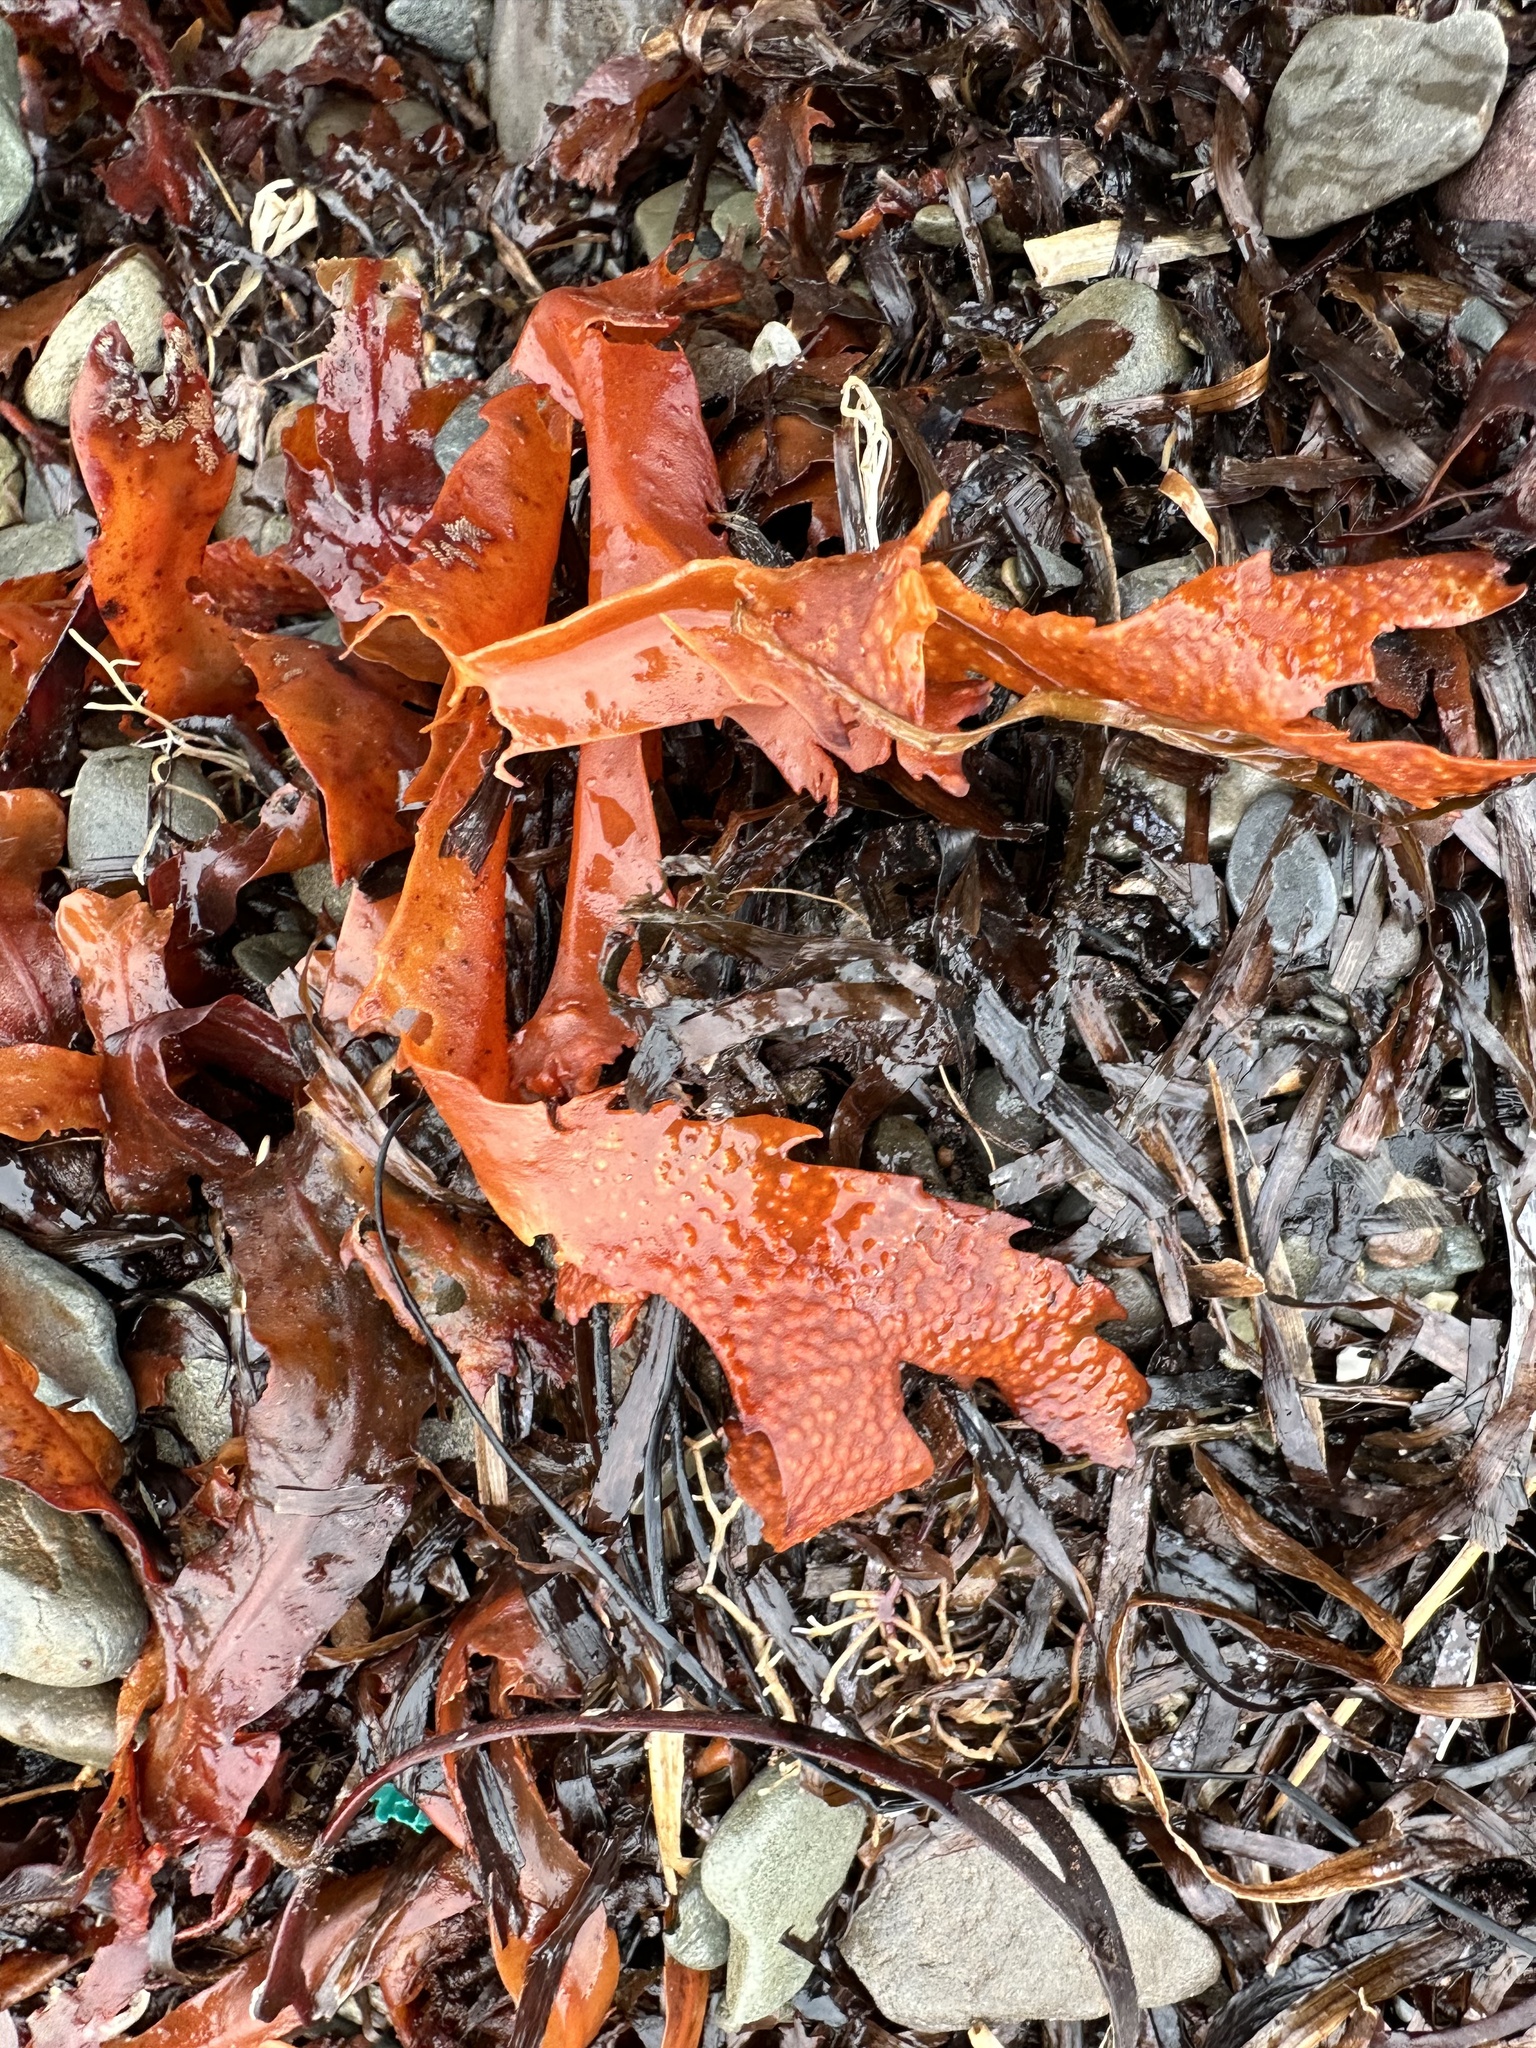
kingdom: Chromista
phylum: Ochrophyta
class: Phaeophyceae
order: Fucales
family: Fucaceae
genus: Fucus
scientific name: Fucus serratus
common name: Toothed wrack
